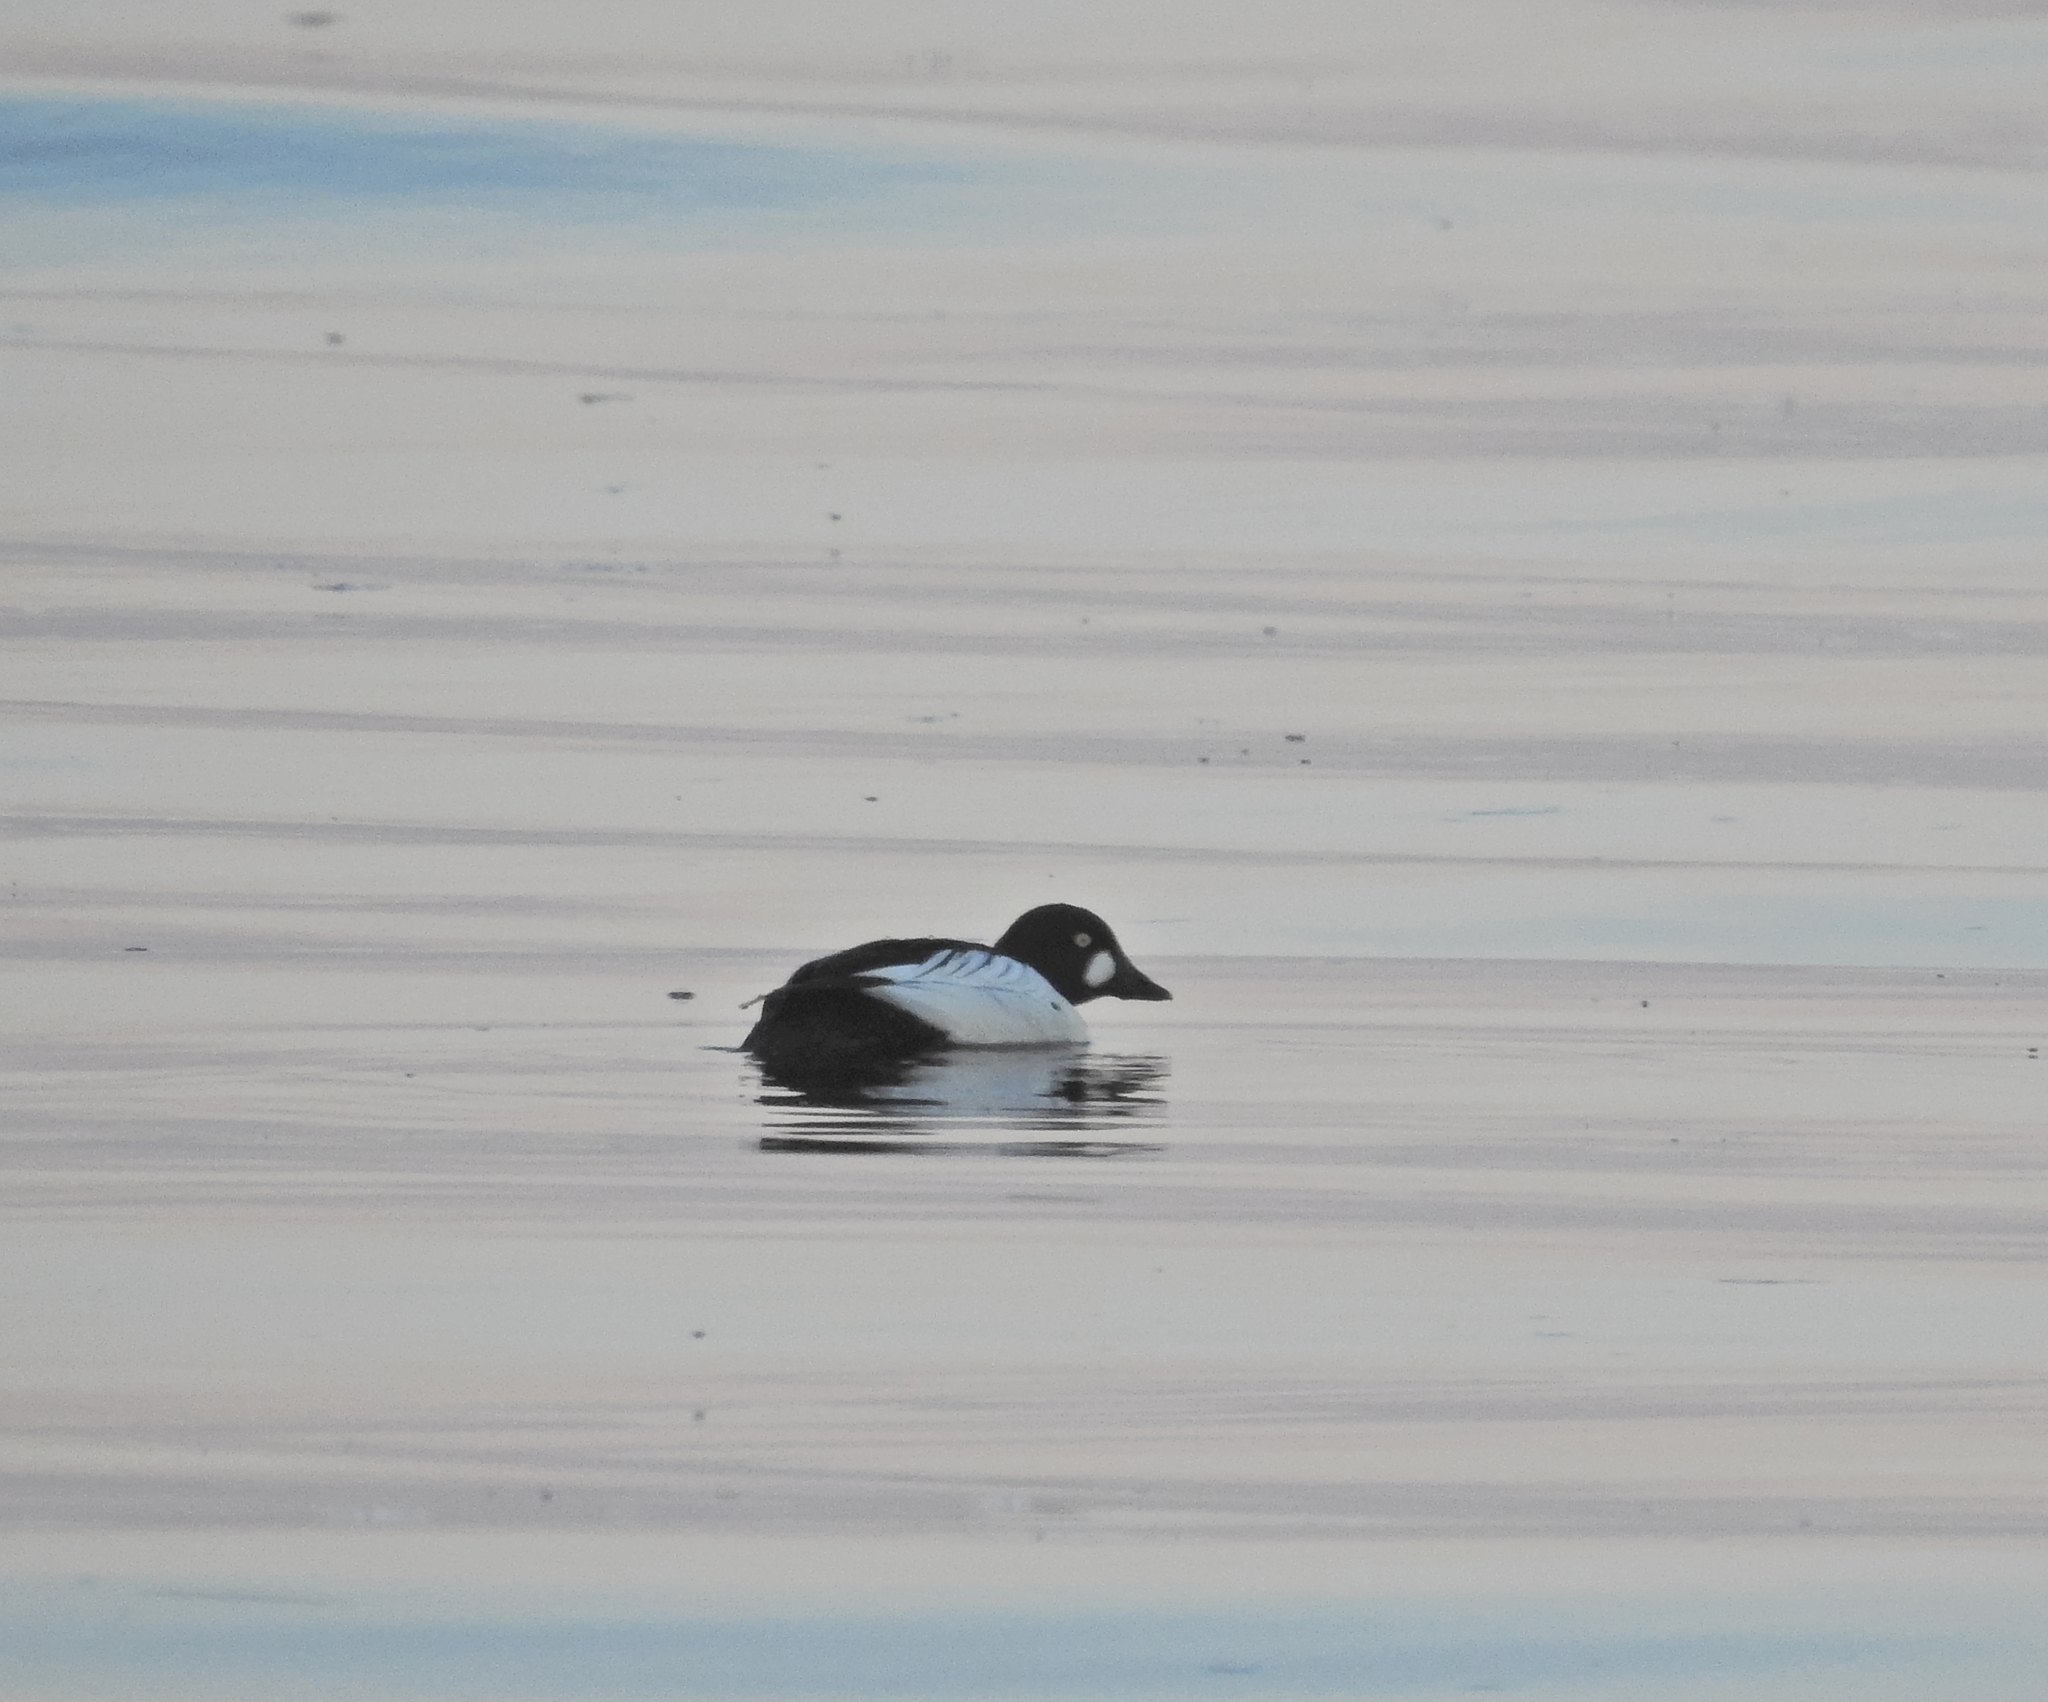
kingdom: Animalia
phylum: Chordata
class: Aves
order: Anseriformes
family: Anatidae
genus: Bucephala
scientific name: Bucephala clangula
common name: Common goldeneye
